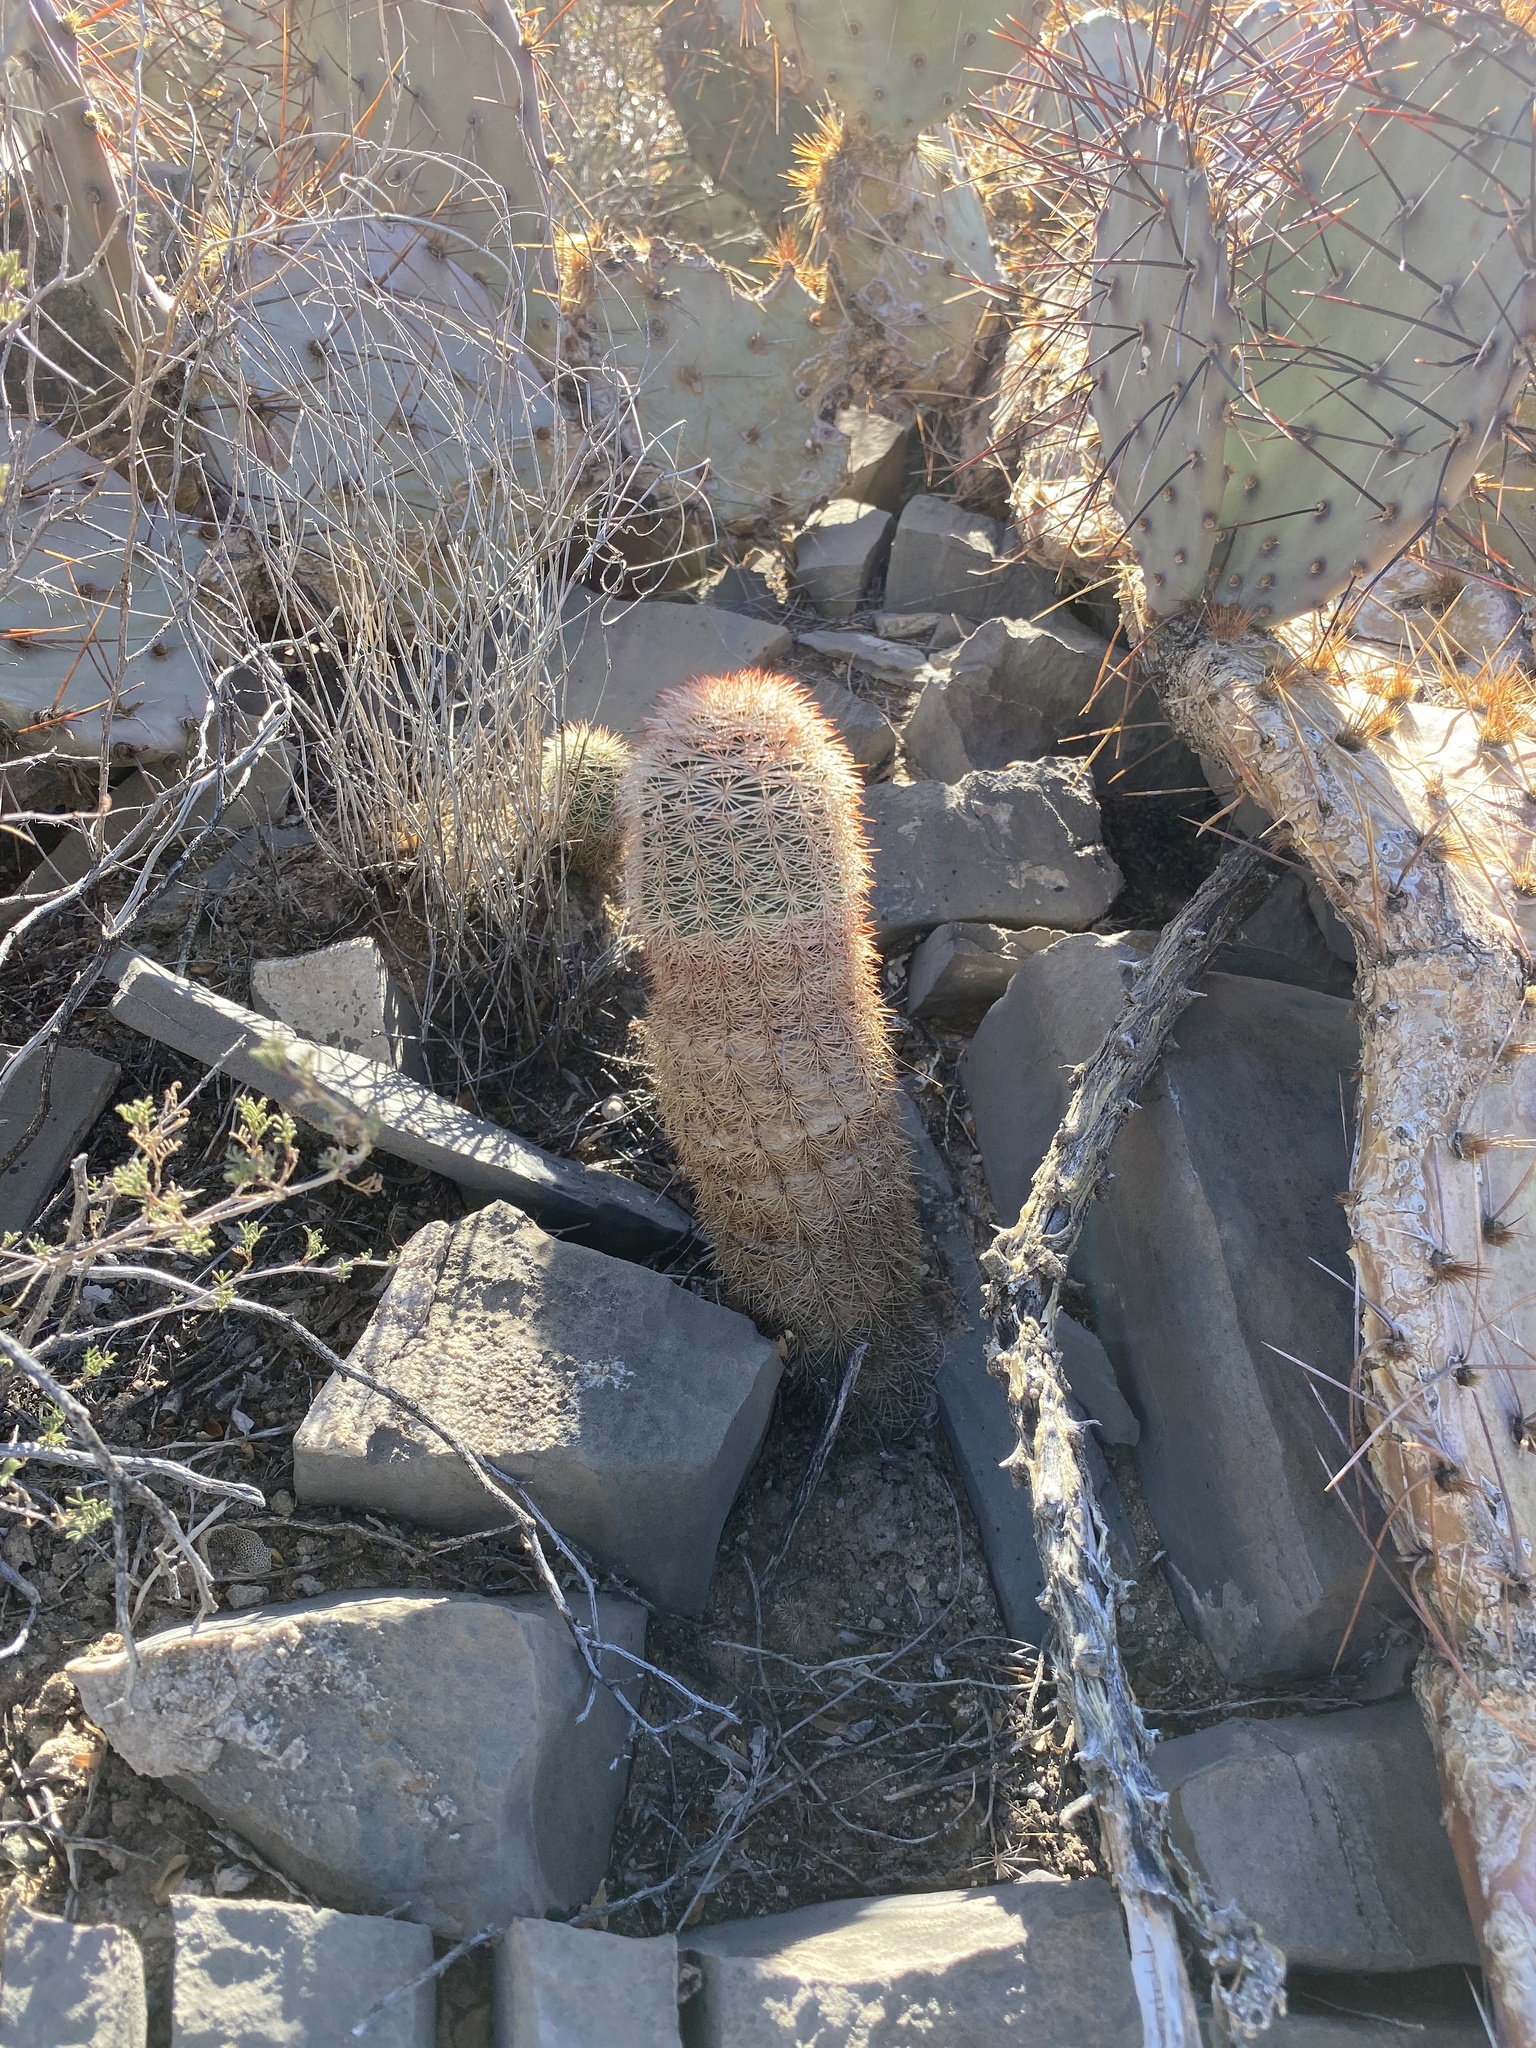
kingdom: Plantae
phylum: Tracheophyta
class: Magnoliopsida
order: Caryophyllales
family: Cactaceae
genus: Echinocereus
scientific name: Echinocereus dasyacanthus
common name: Spiny hedgehog cactus
